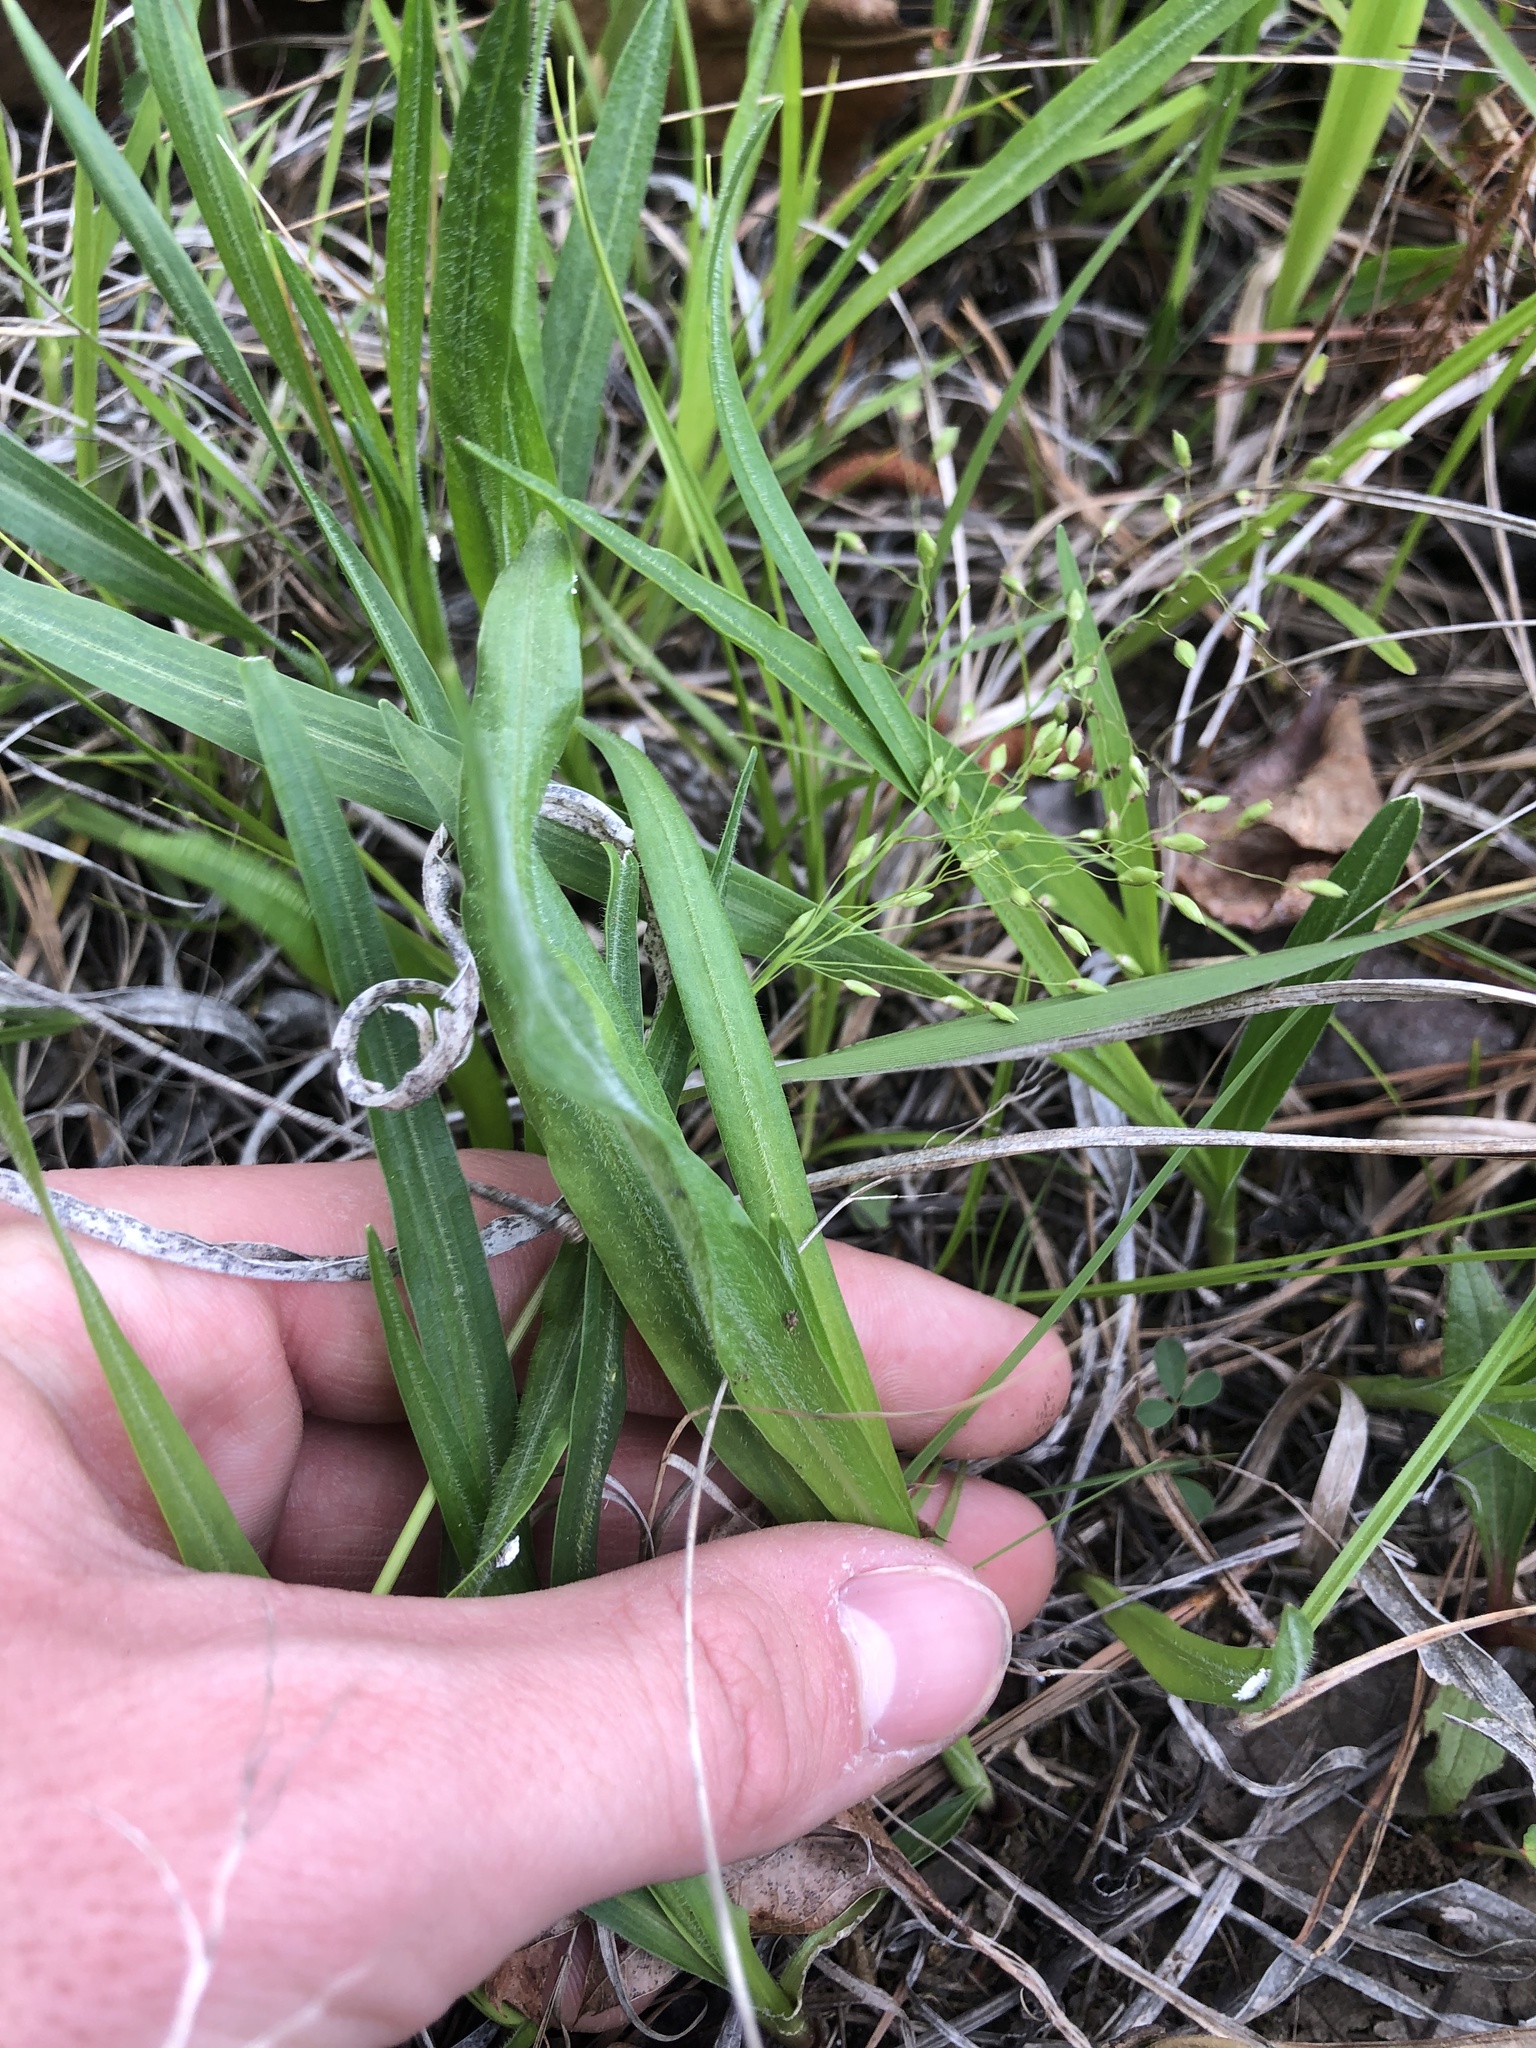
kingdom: Plantae
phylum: Tracheophyta
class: Magnoliopsida
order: Asterales
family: Asteraceae
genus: Liatris
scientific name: Liatris pilosa
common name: Grass-leaf gayfeather
